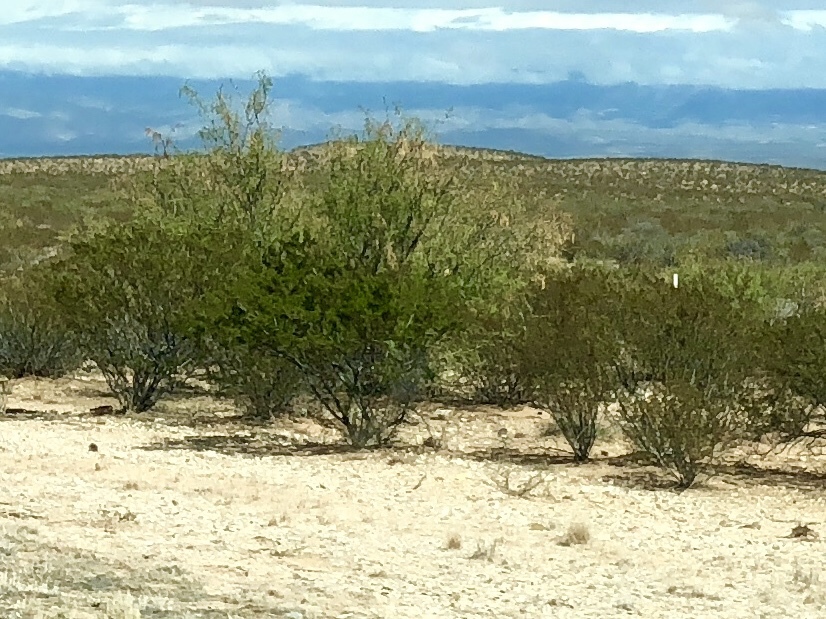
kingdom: Plantae
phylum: Tracheophyta
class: Magnoliopsida
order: Zygophyllales
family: Zygophyllaceae
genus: Larrea
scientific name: Larrea tridentata
